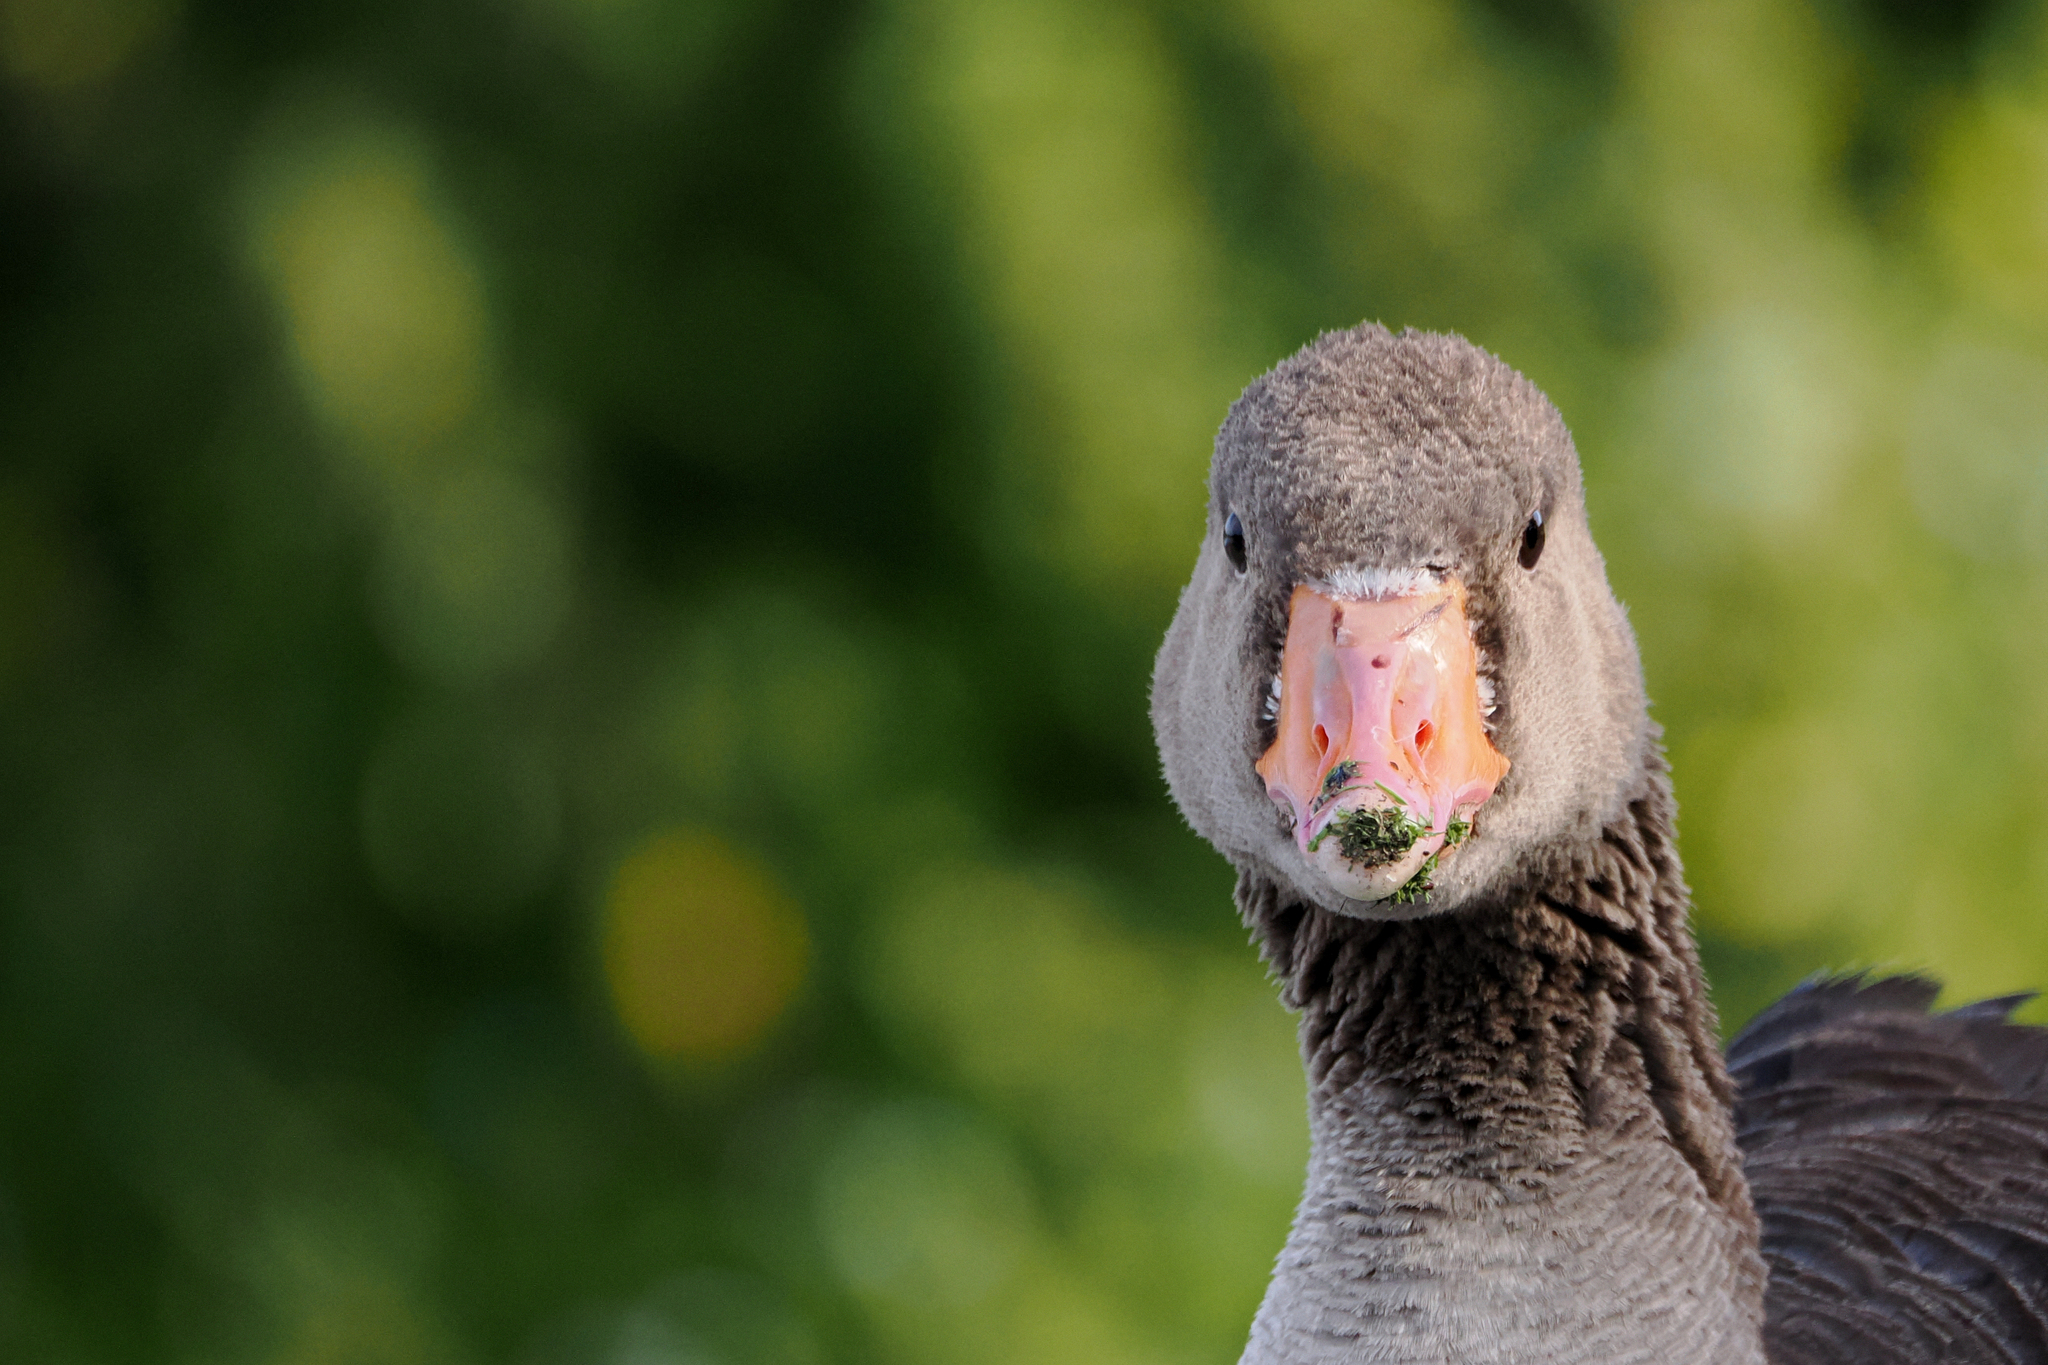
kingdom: Animalia
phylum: Chordata
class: Aves
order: Anseriformes
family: Anatidae
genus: Anser
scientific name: Anser anser
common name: Greylag goose
